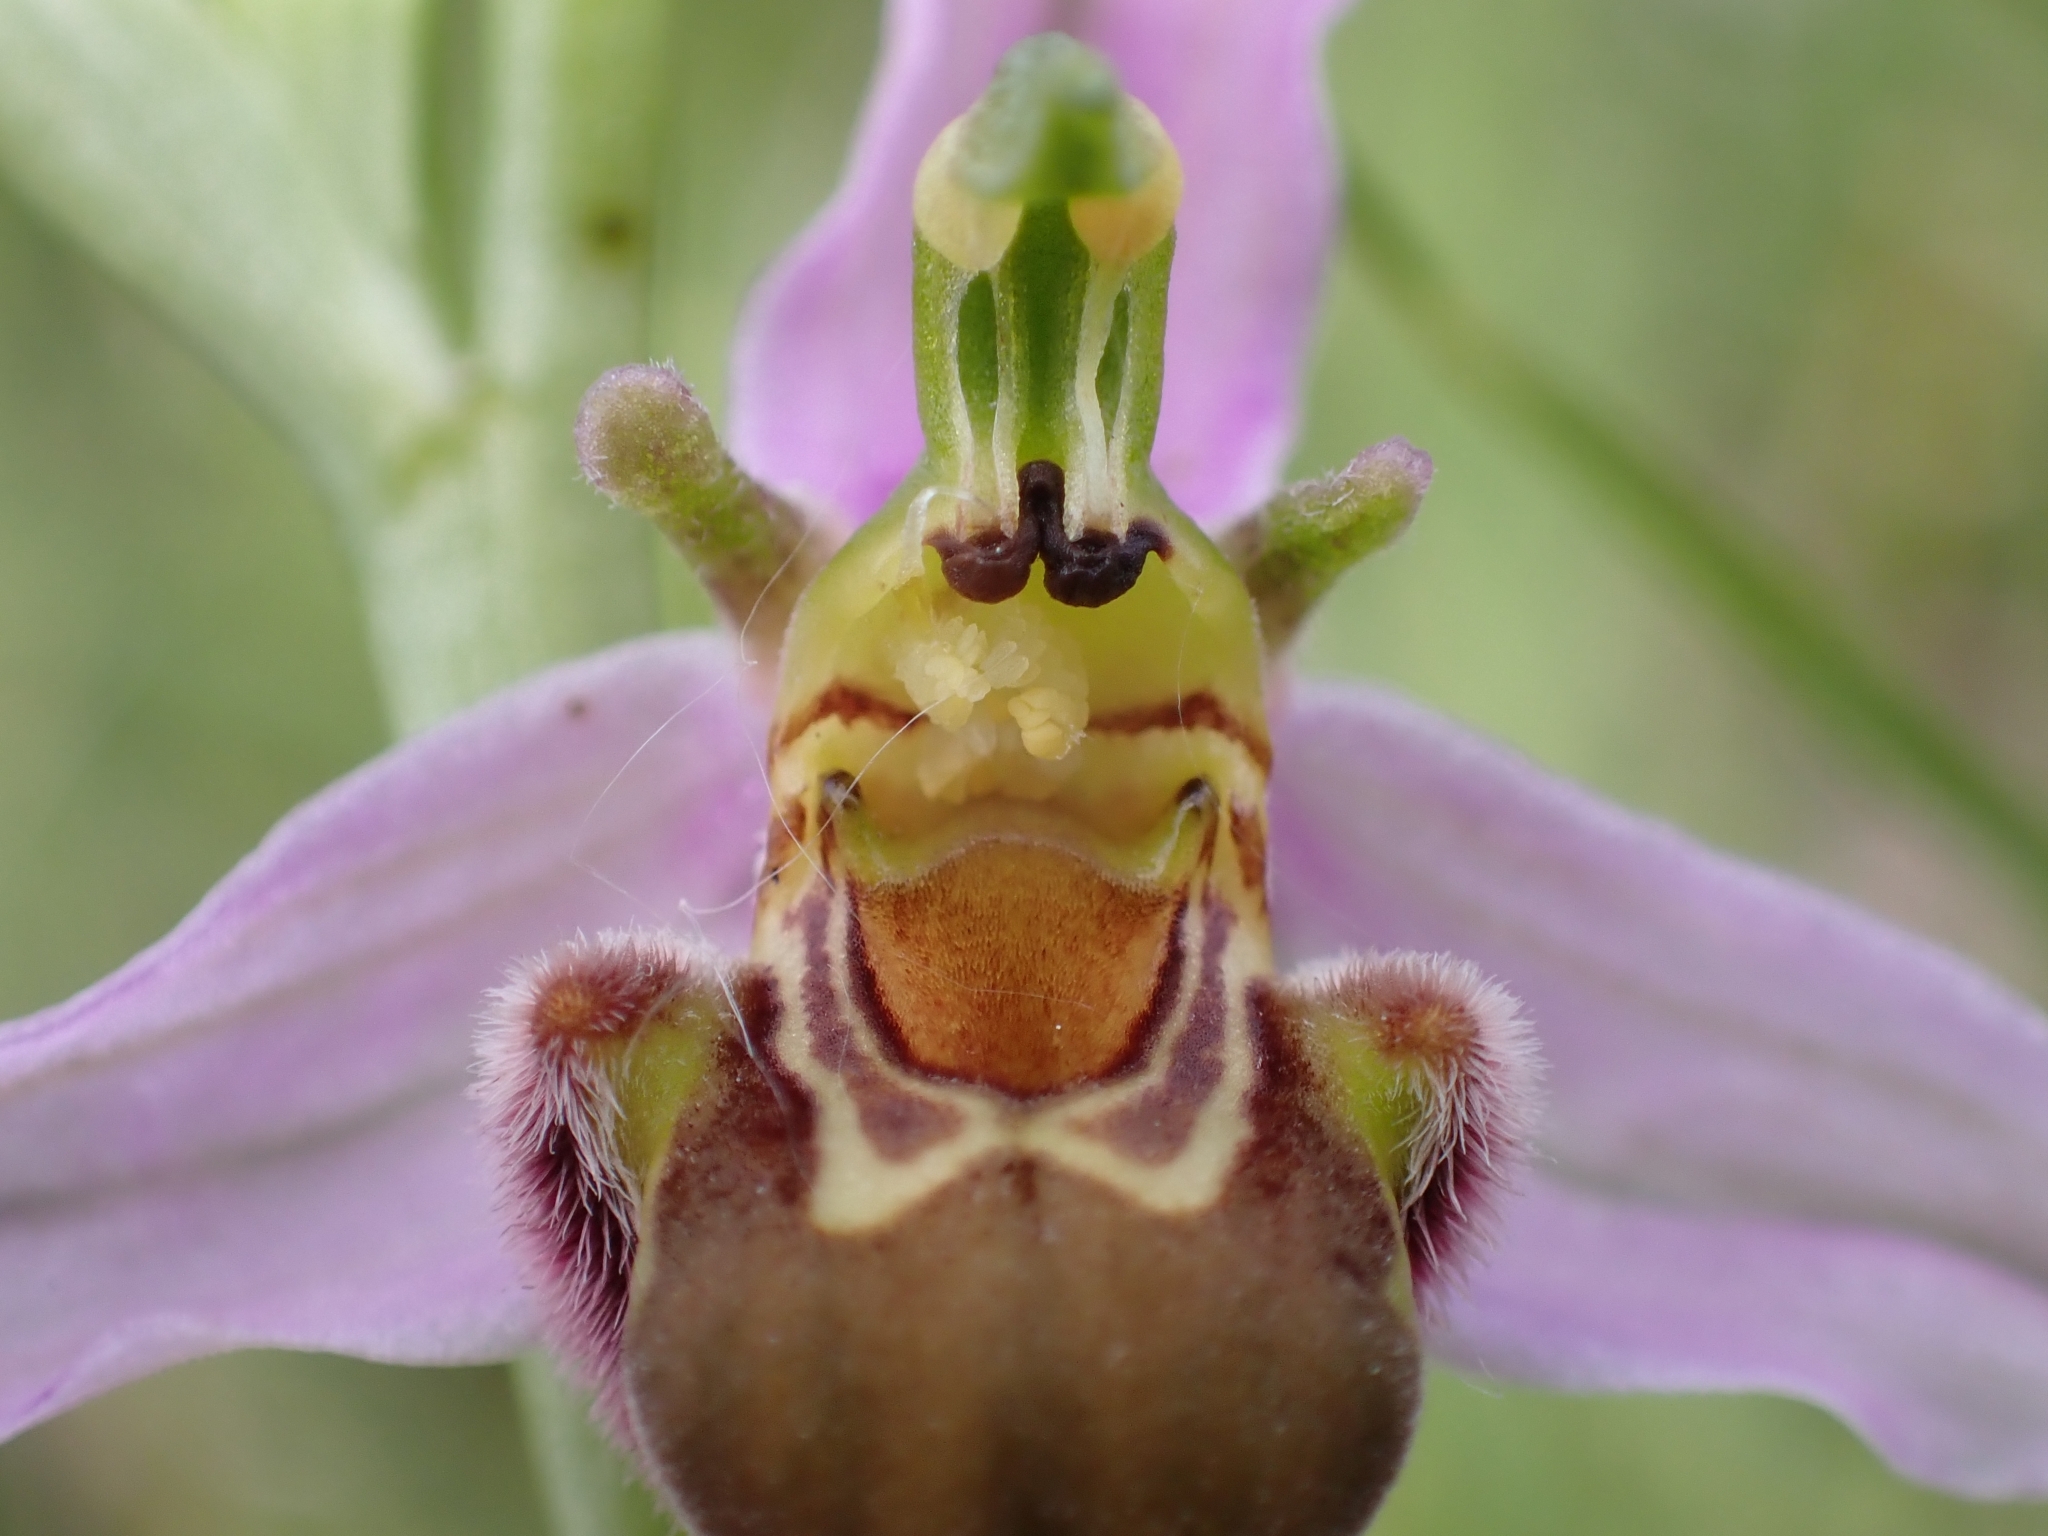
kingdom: Plantae
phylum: Tracheophyta
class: Liliopsida
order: Asparagales
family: Orchidaceae
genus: Ophrys
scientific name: Ophrys apifera
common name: Bee orchid
